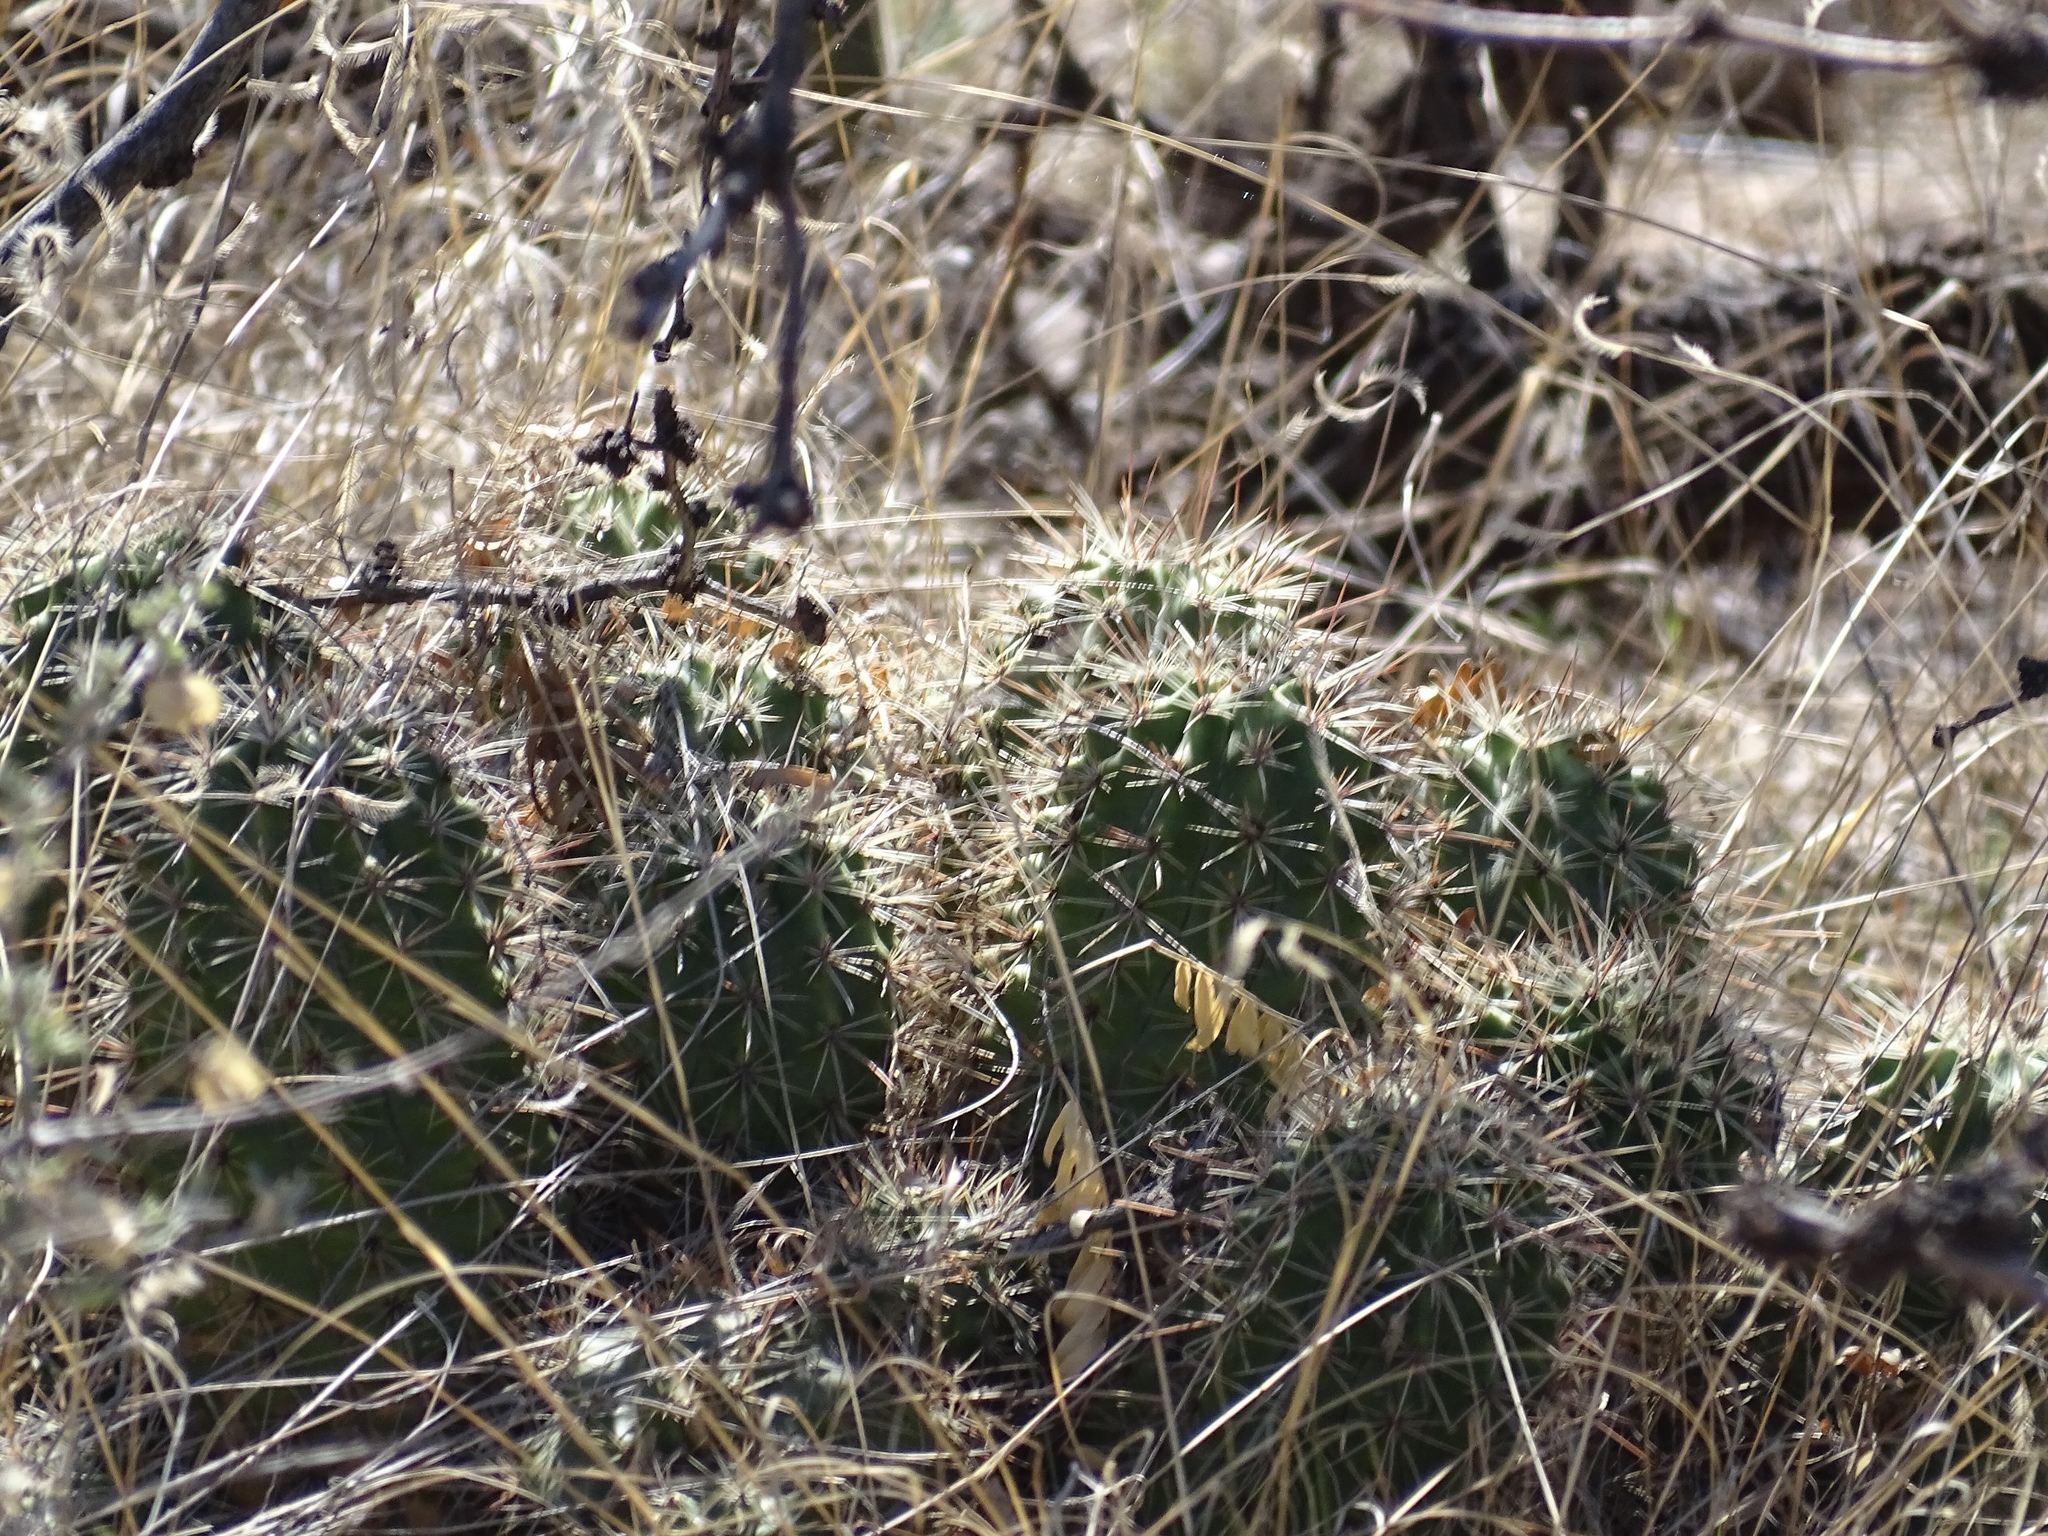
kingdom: Plantae
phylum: Tracheophyta
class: Magnoliopsida
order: Caryophyllales
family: Cactaceae
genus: Echinocereus
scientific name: Echinocereus coccineus
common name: Scarlet hedgehog cactus
